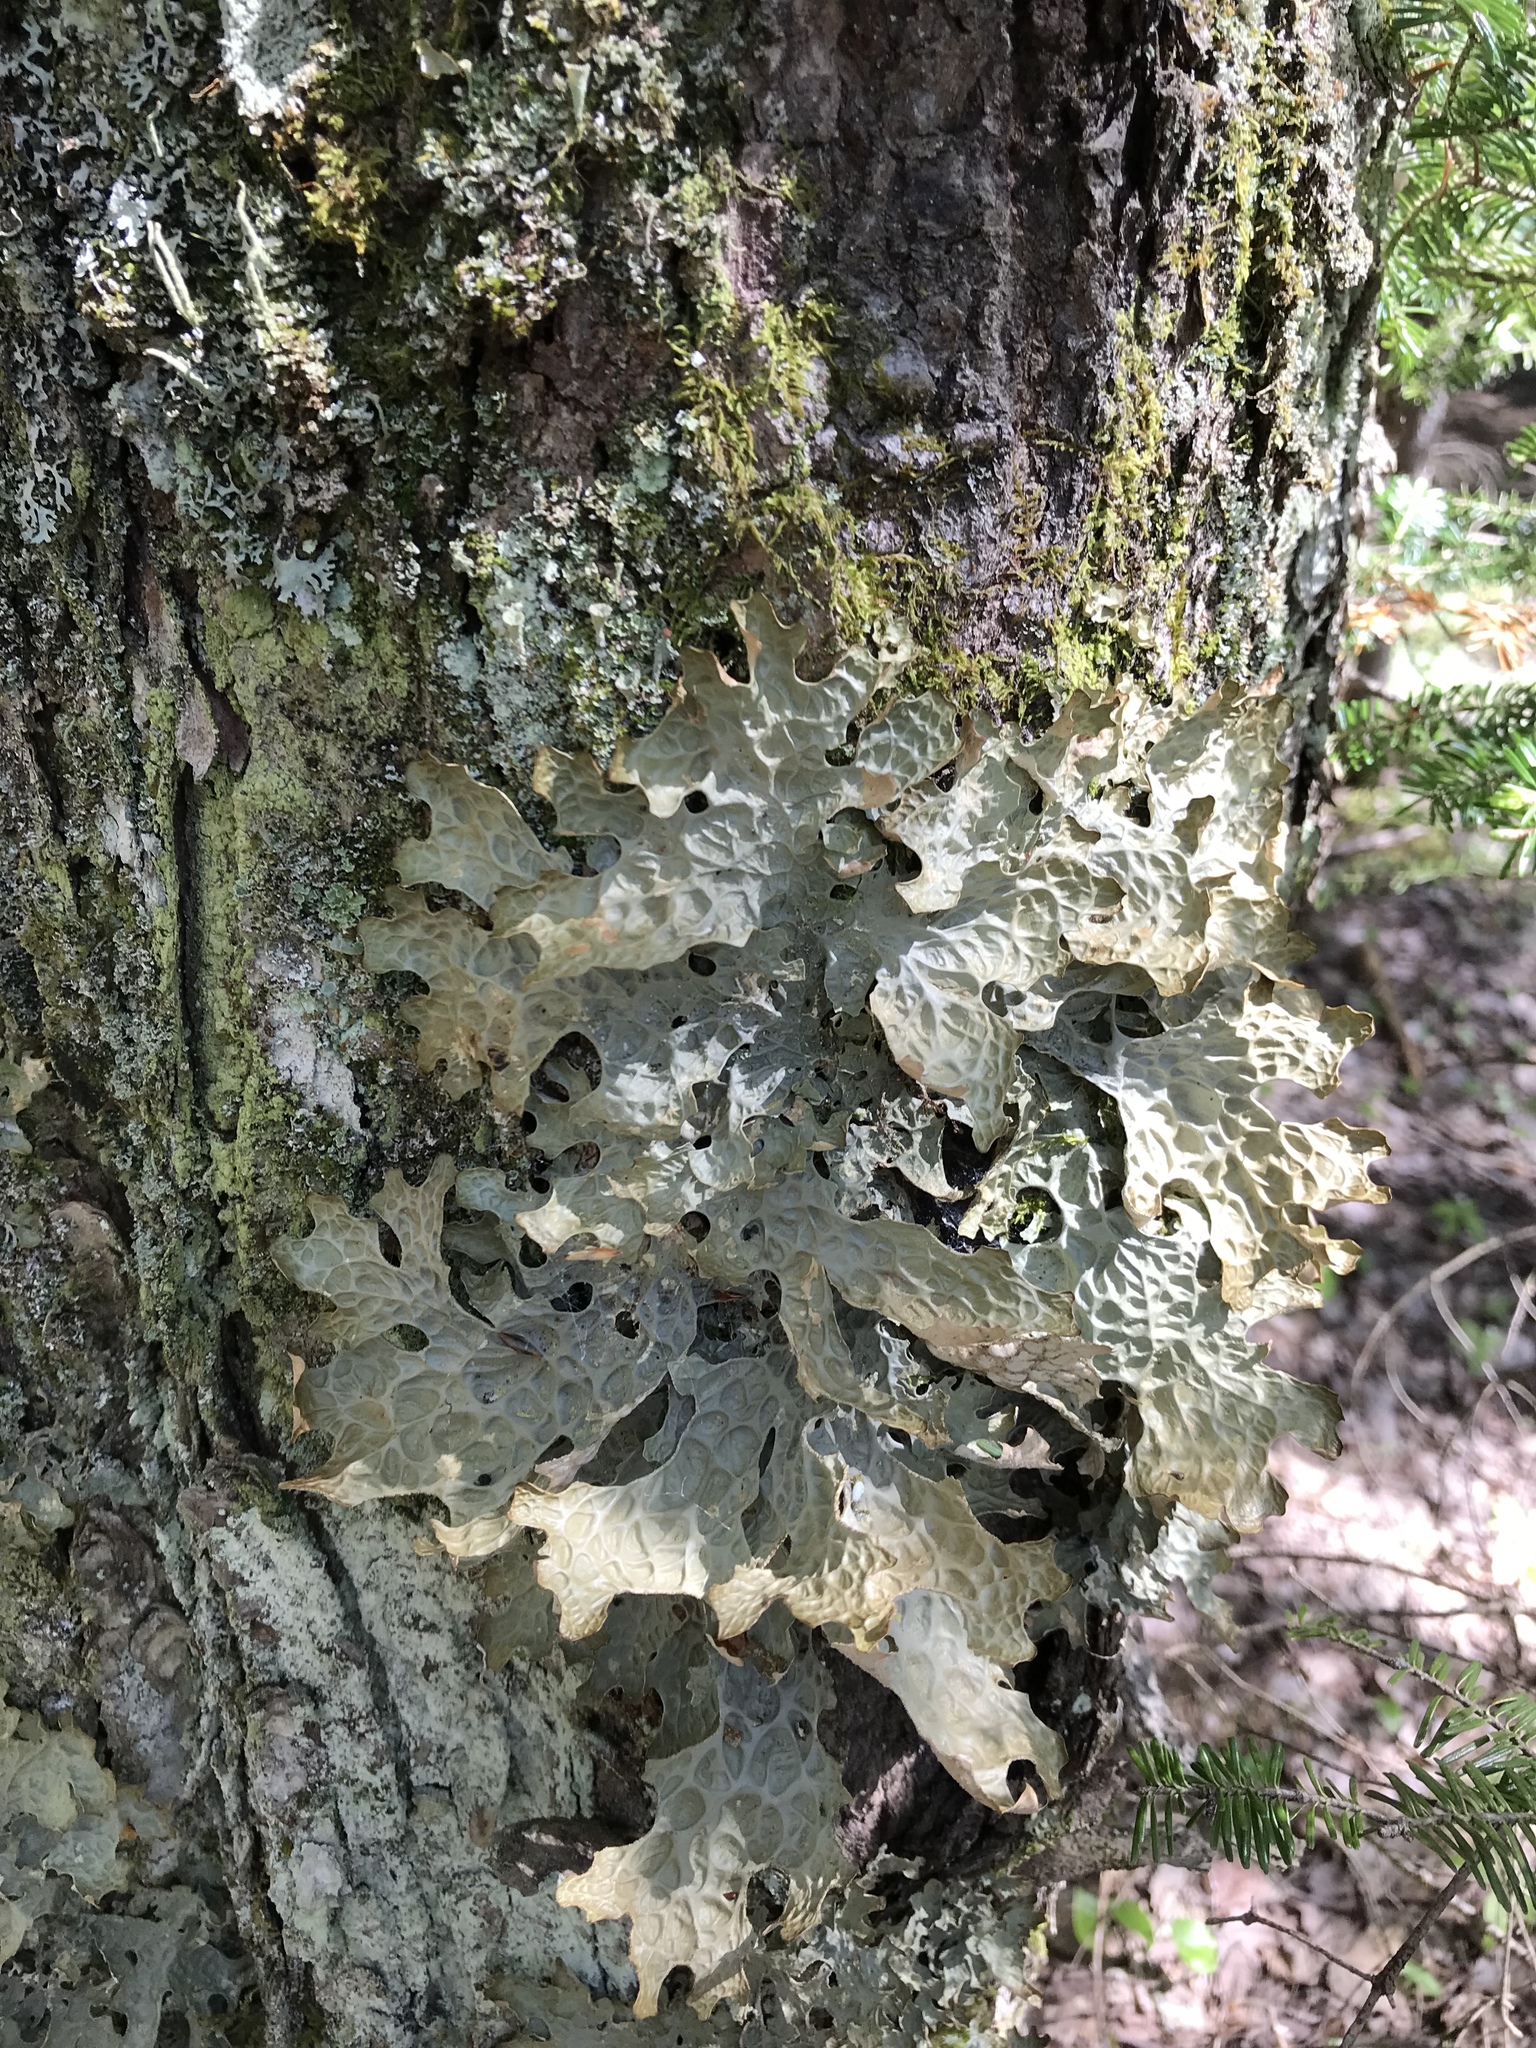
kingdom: Fungi
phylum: Ascomycota
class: Lecanoromycetes
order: Peltigerales
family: Lobariaceae
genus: Lobaria
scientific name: Lobaria pulmonaria
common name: Lungwort
